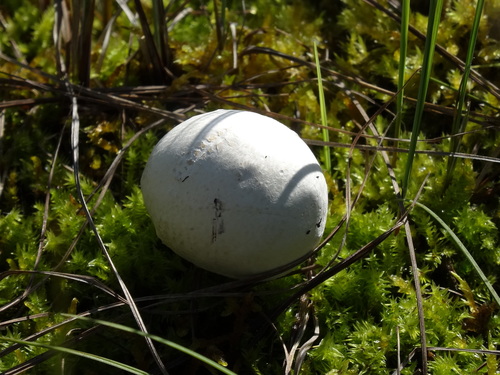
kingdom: Fungi
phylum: Basidiomycota
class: Agaricomycetes
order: Agaricales
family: Lycoperdaceae
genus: Bovista
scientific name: Bovista
